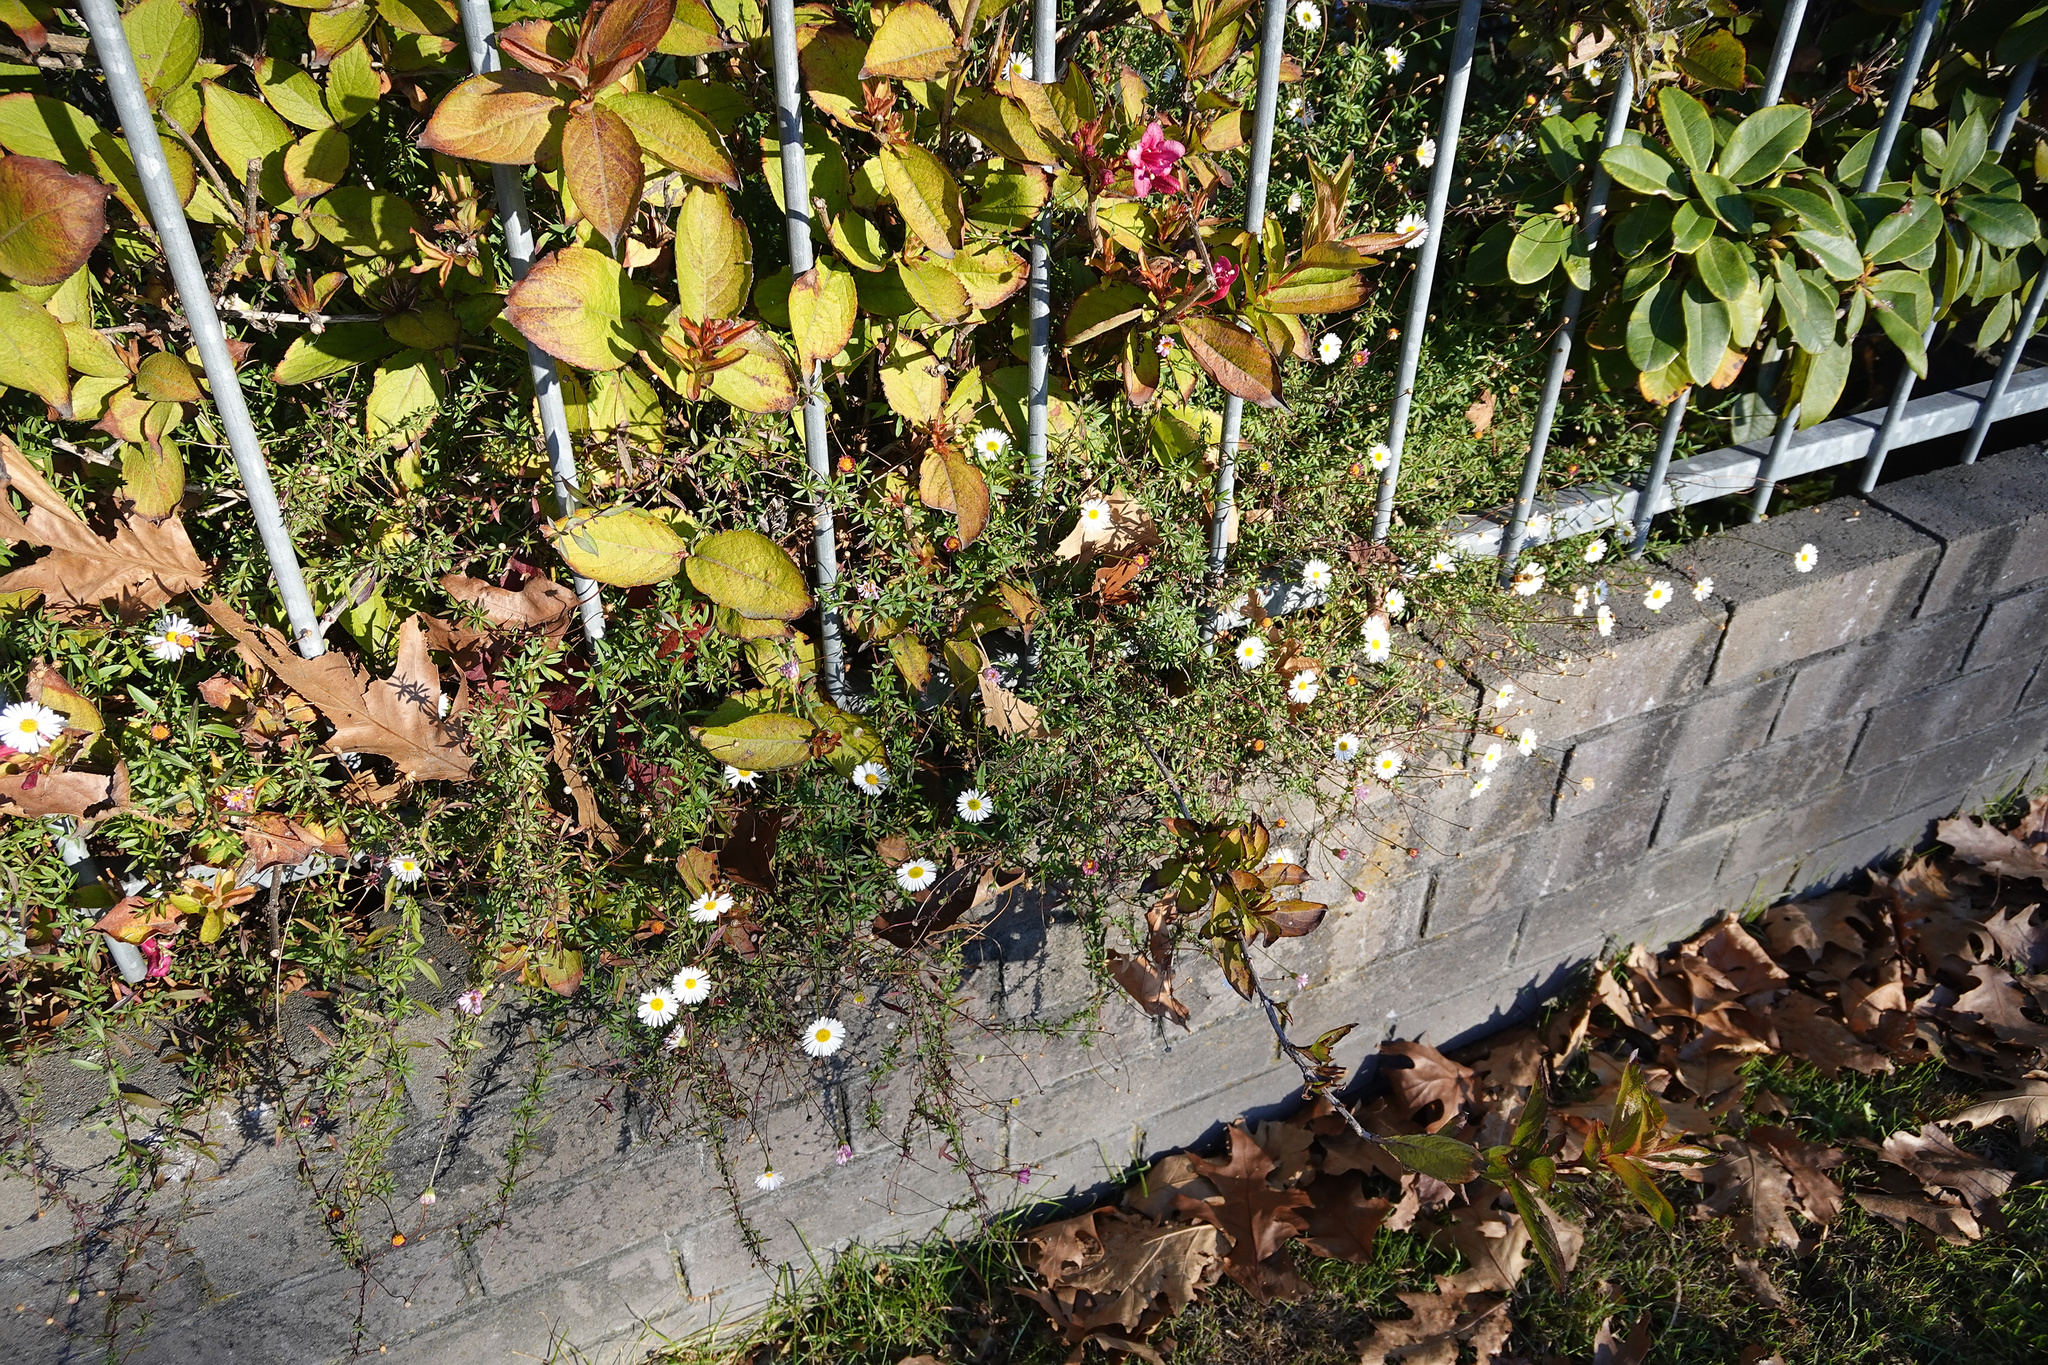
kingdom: Plantae
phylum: Tracheophyta
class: Magnoliopsida
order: Asterales
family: Asteraceae
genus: Erigeron
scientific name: Erigeron karvinskianus
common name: Mexican fleabane
